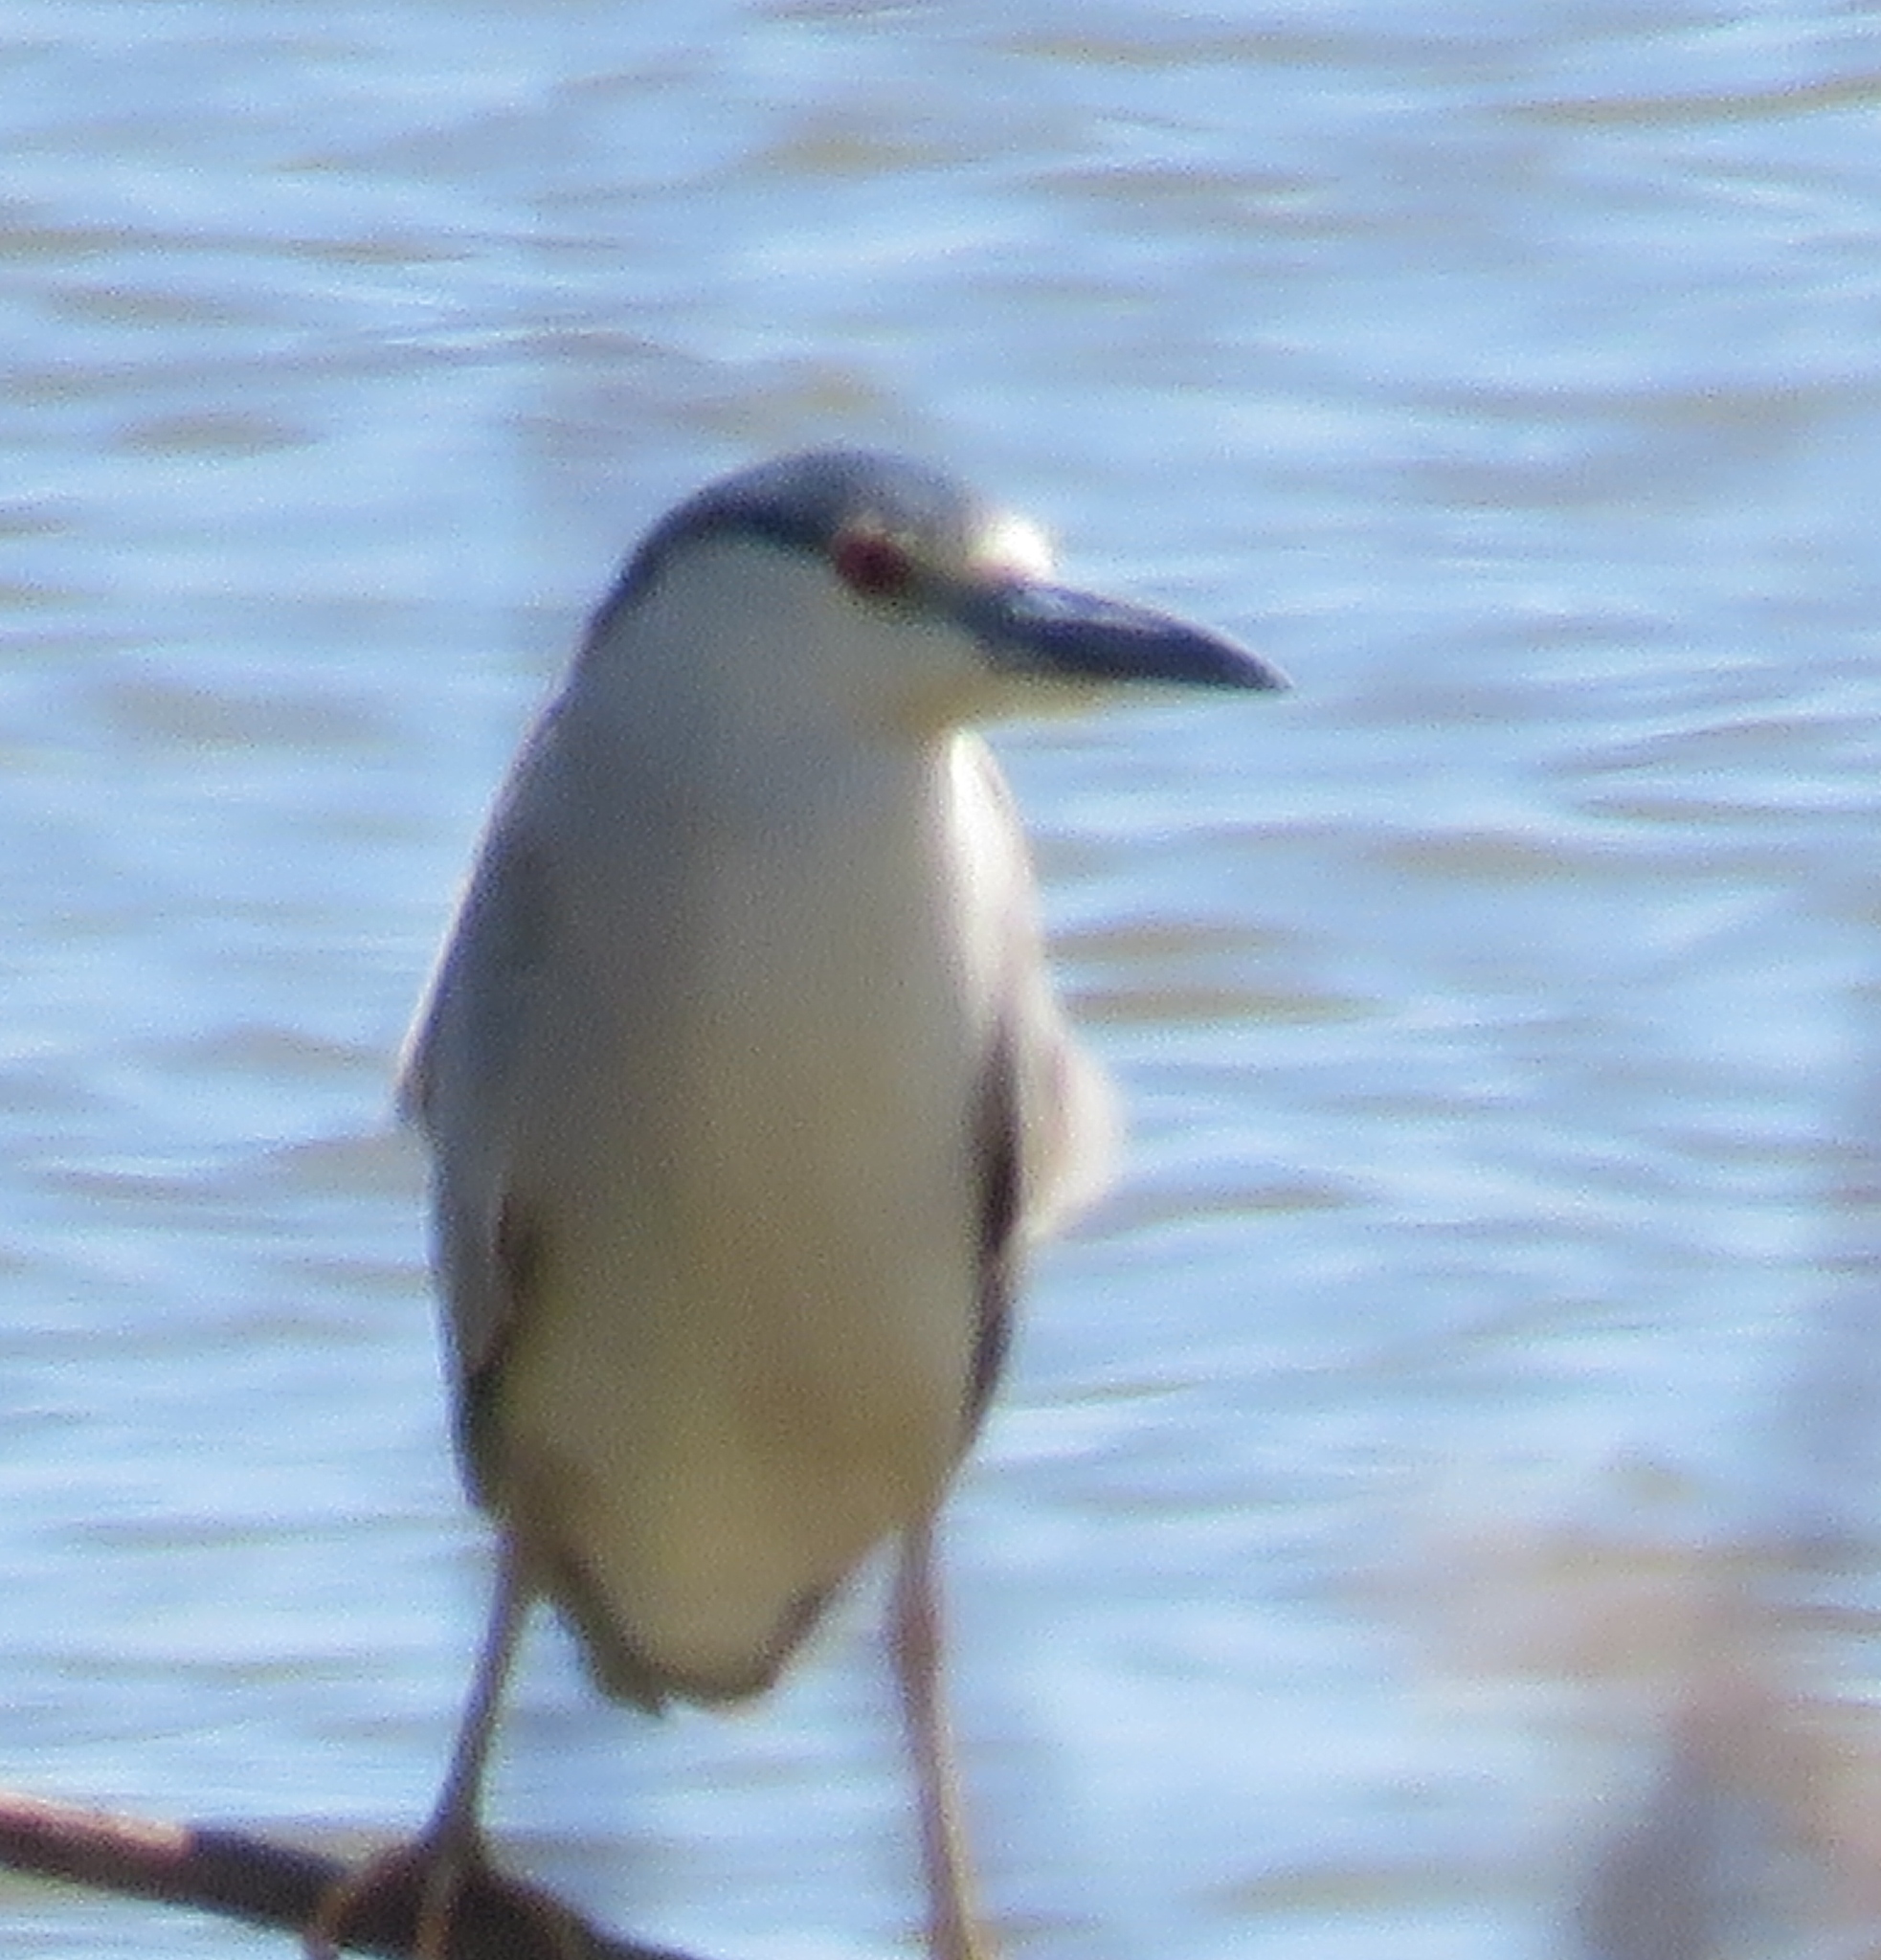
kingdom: Animalia
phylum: Chordata
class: Aves
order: Pelecaniformes
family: Ardeidae
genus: Nycticorax
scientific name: Nycticorax nycticorax
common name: Black-crowned night heron
